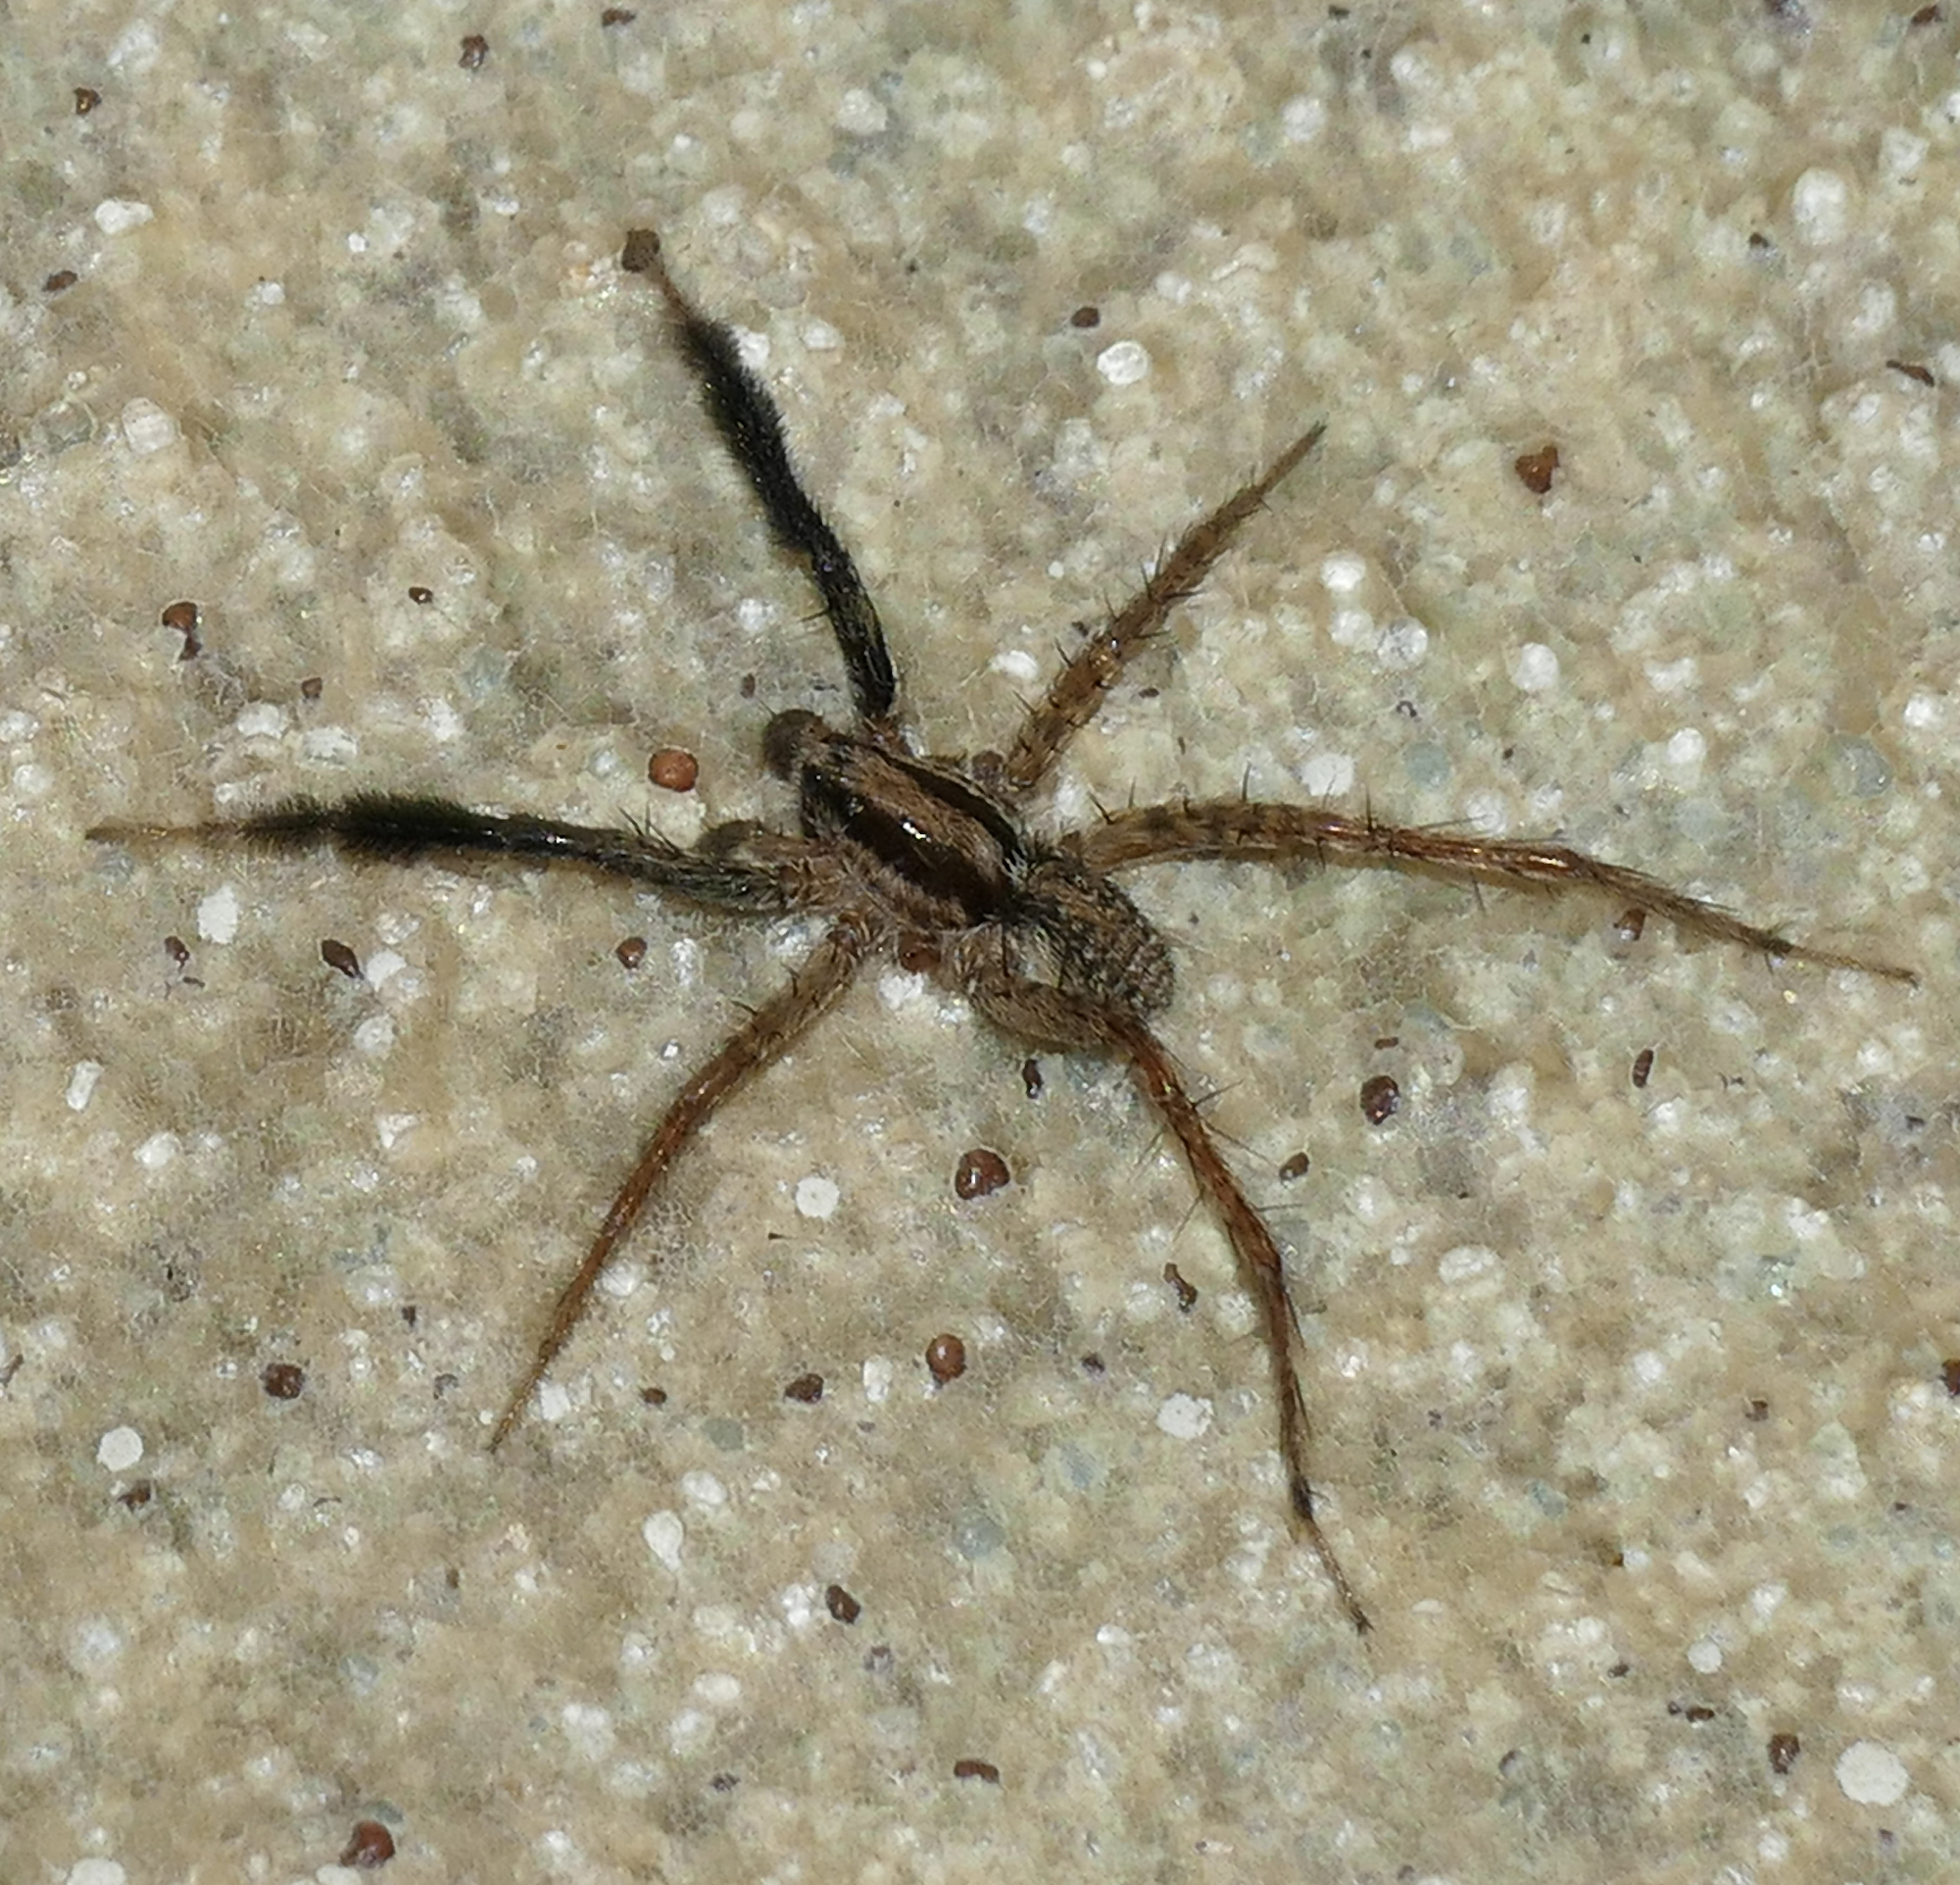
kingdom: Animalia
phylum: Arthropoda
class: Arachnida
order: Araneae
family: Lycosidae
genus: Camptocosa
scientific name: Camptocosa parallela
